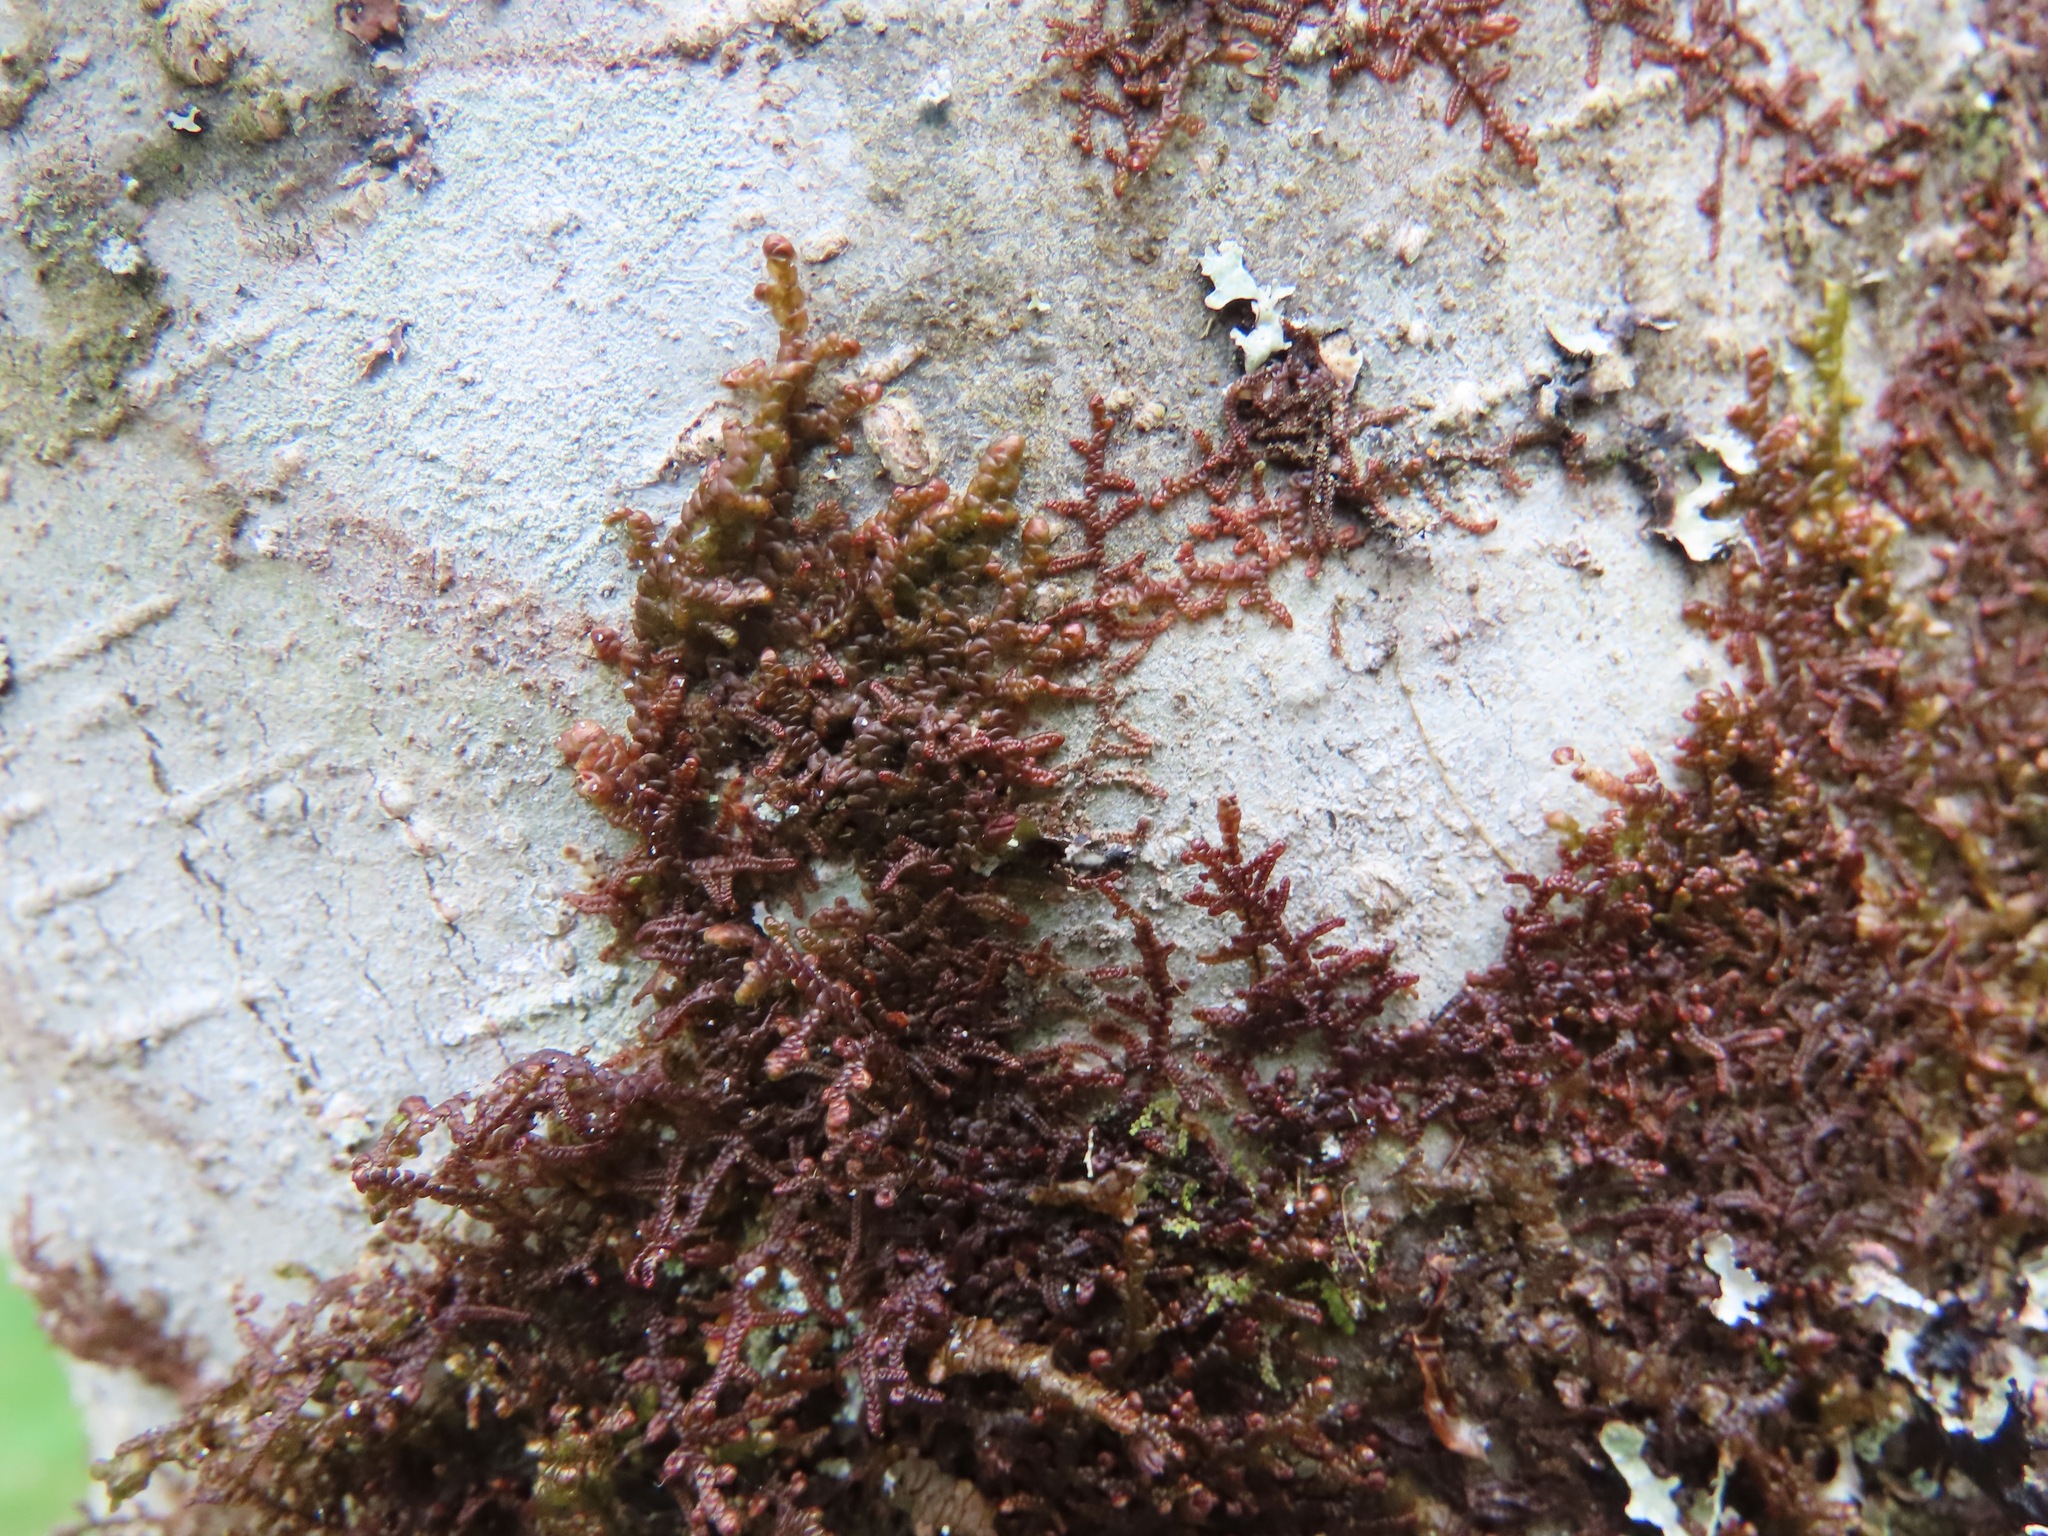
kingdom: Plantae
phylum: Marchantiophyta
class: Jungermanniopsida
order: Porellales
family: Frullaniaceae
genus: Frullania
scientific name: Frullania nisquallensis
